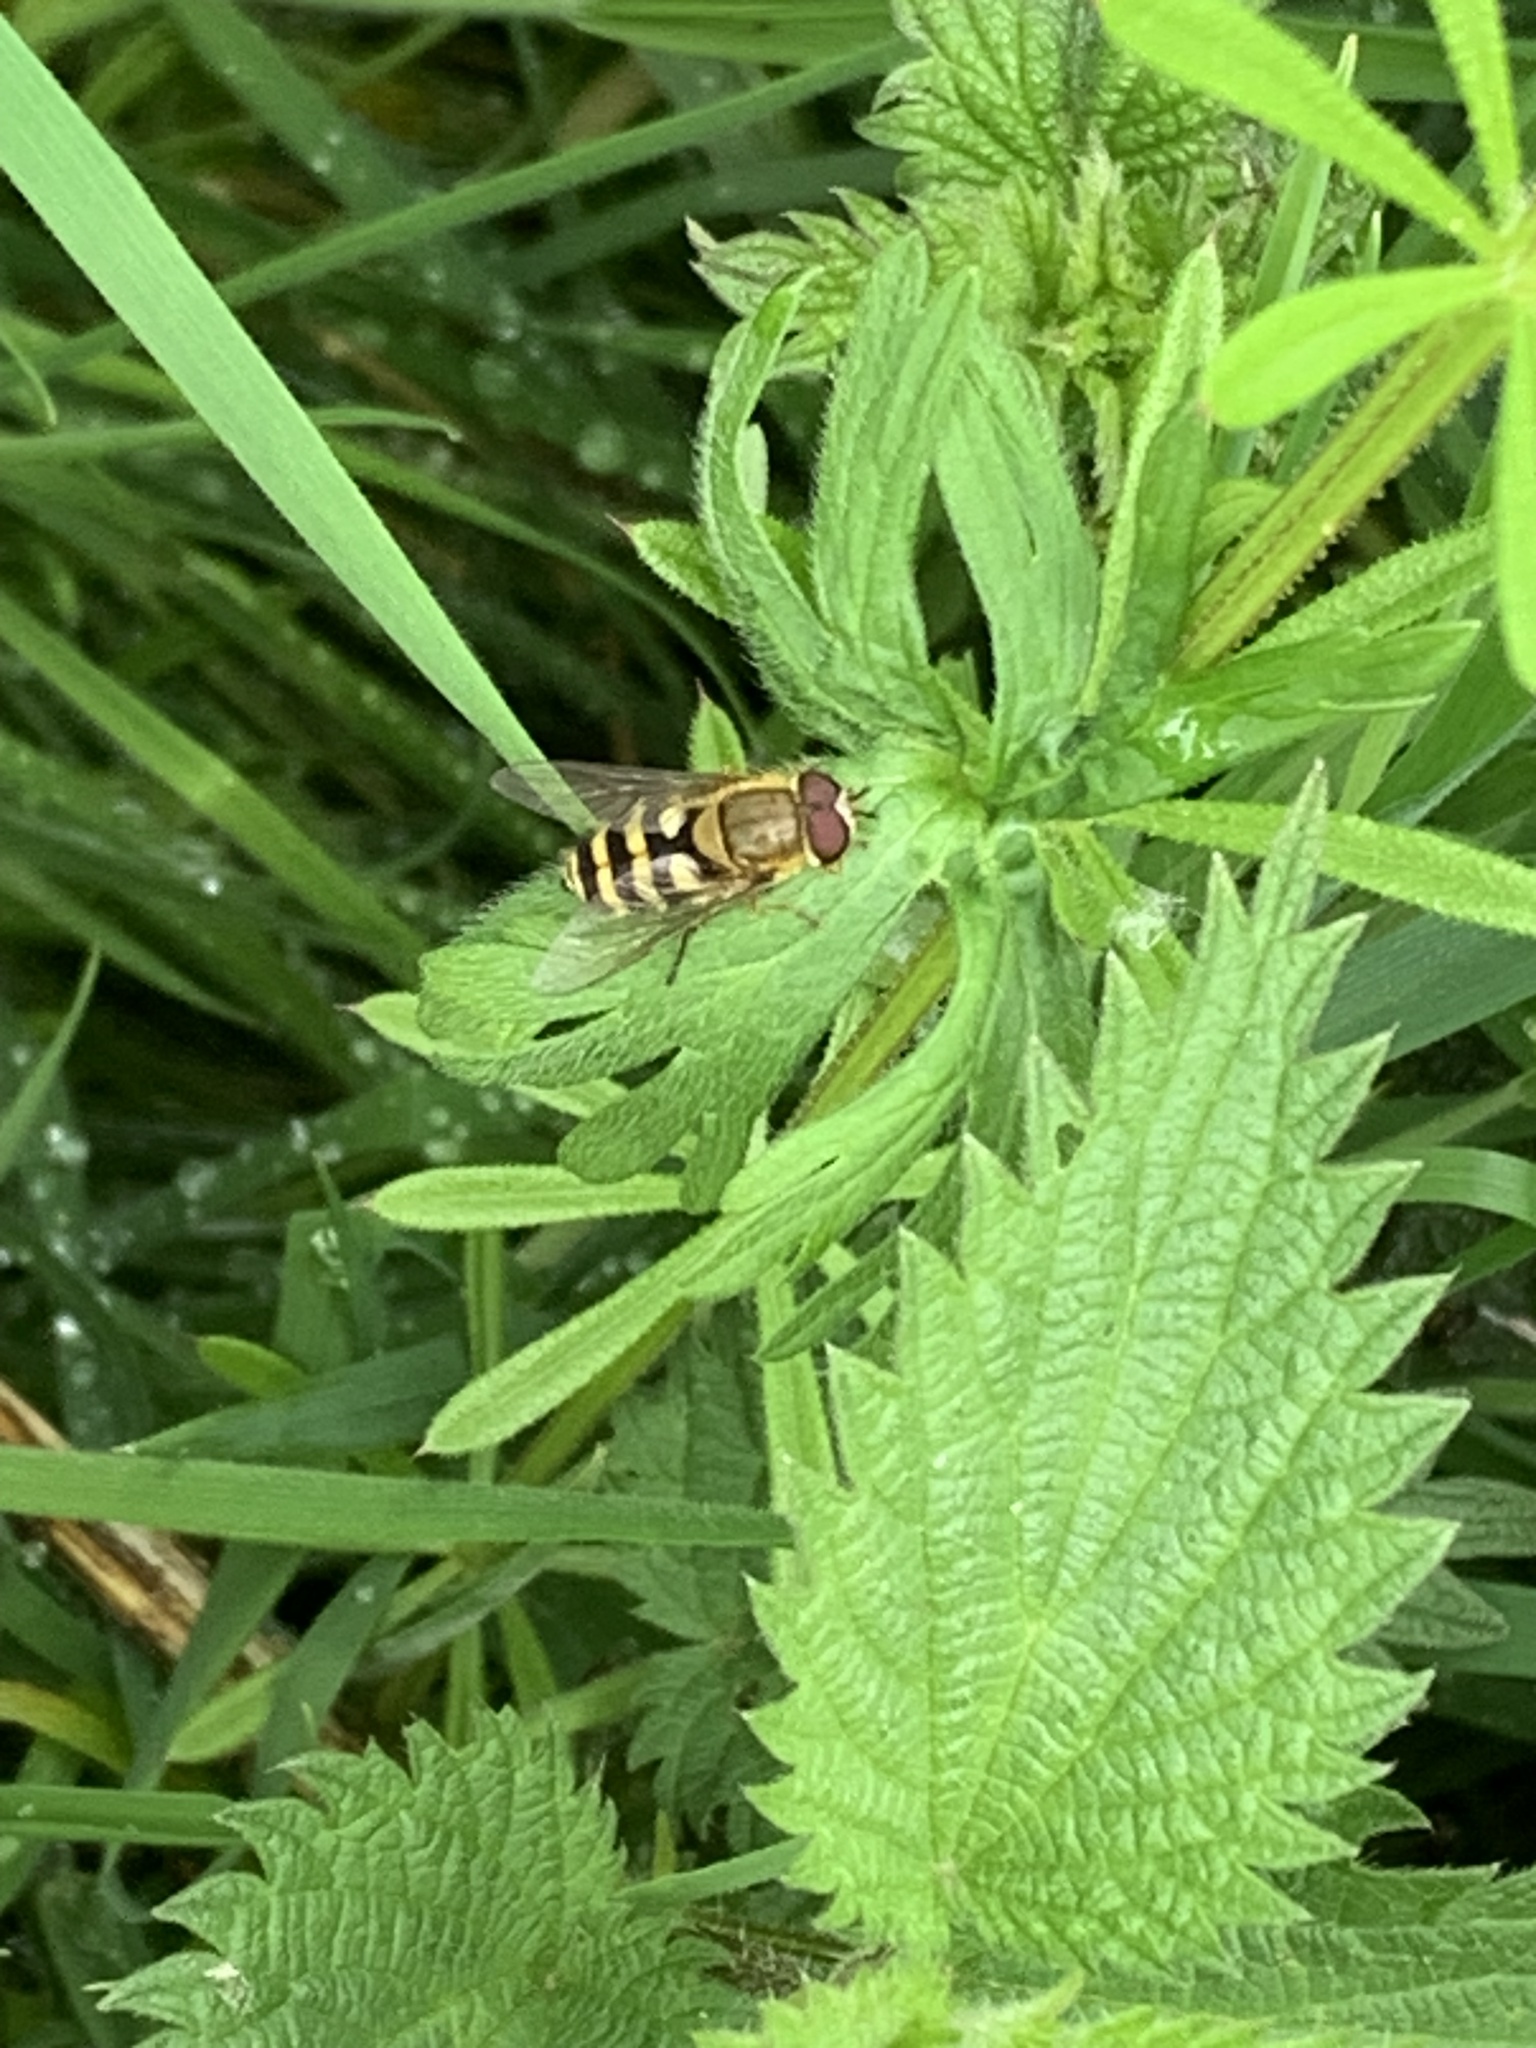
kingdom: Animalia
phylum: Arthropoda
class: Insecta
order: Diptera
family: Syrphidae
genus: Syrphus
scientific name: Syrphus
